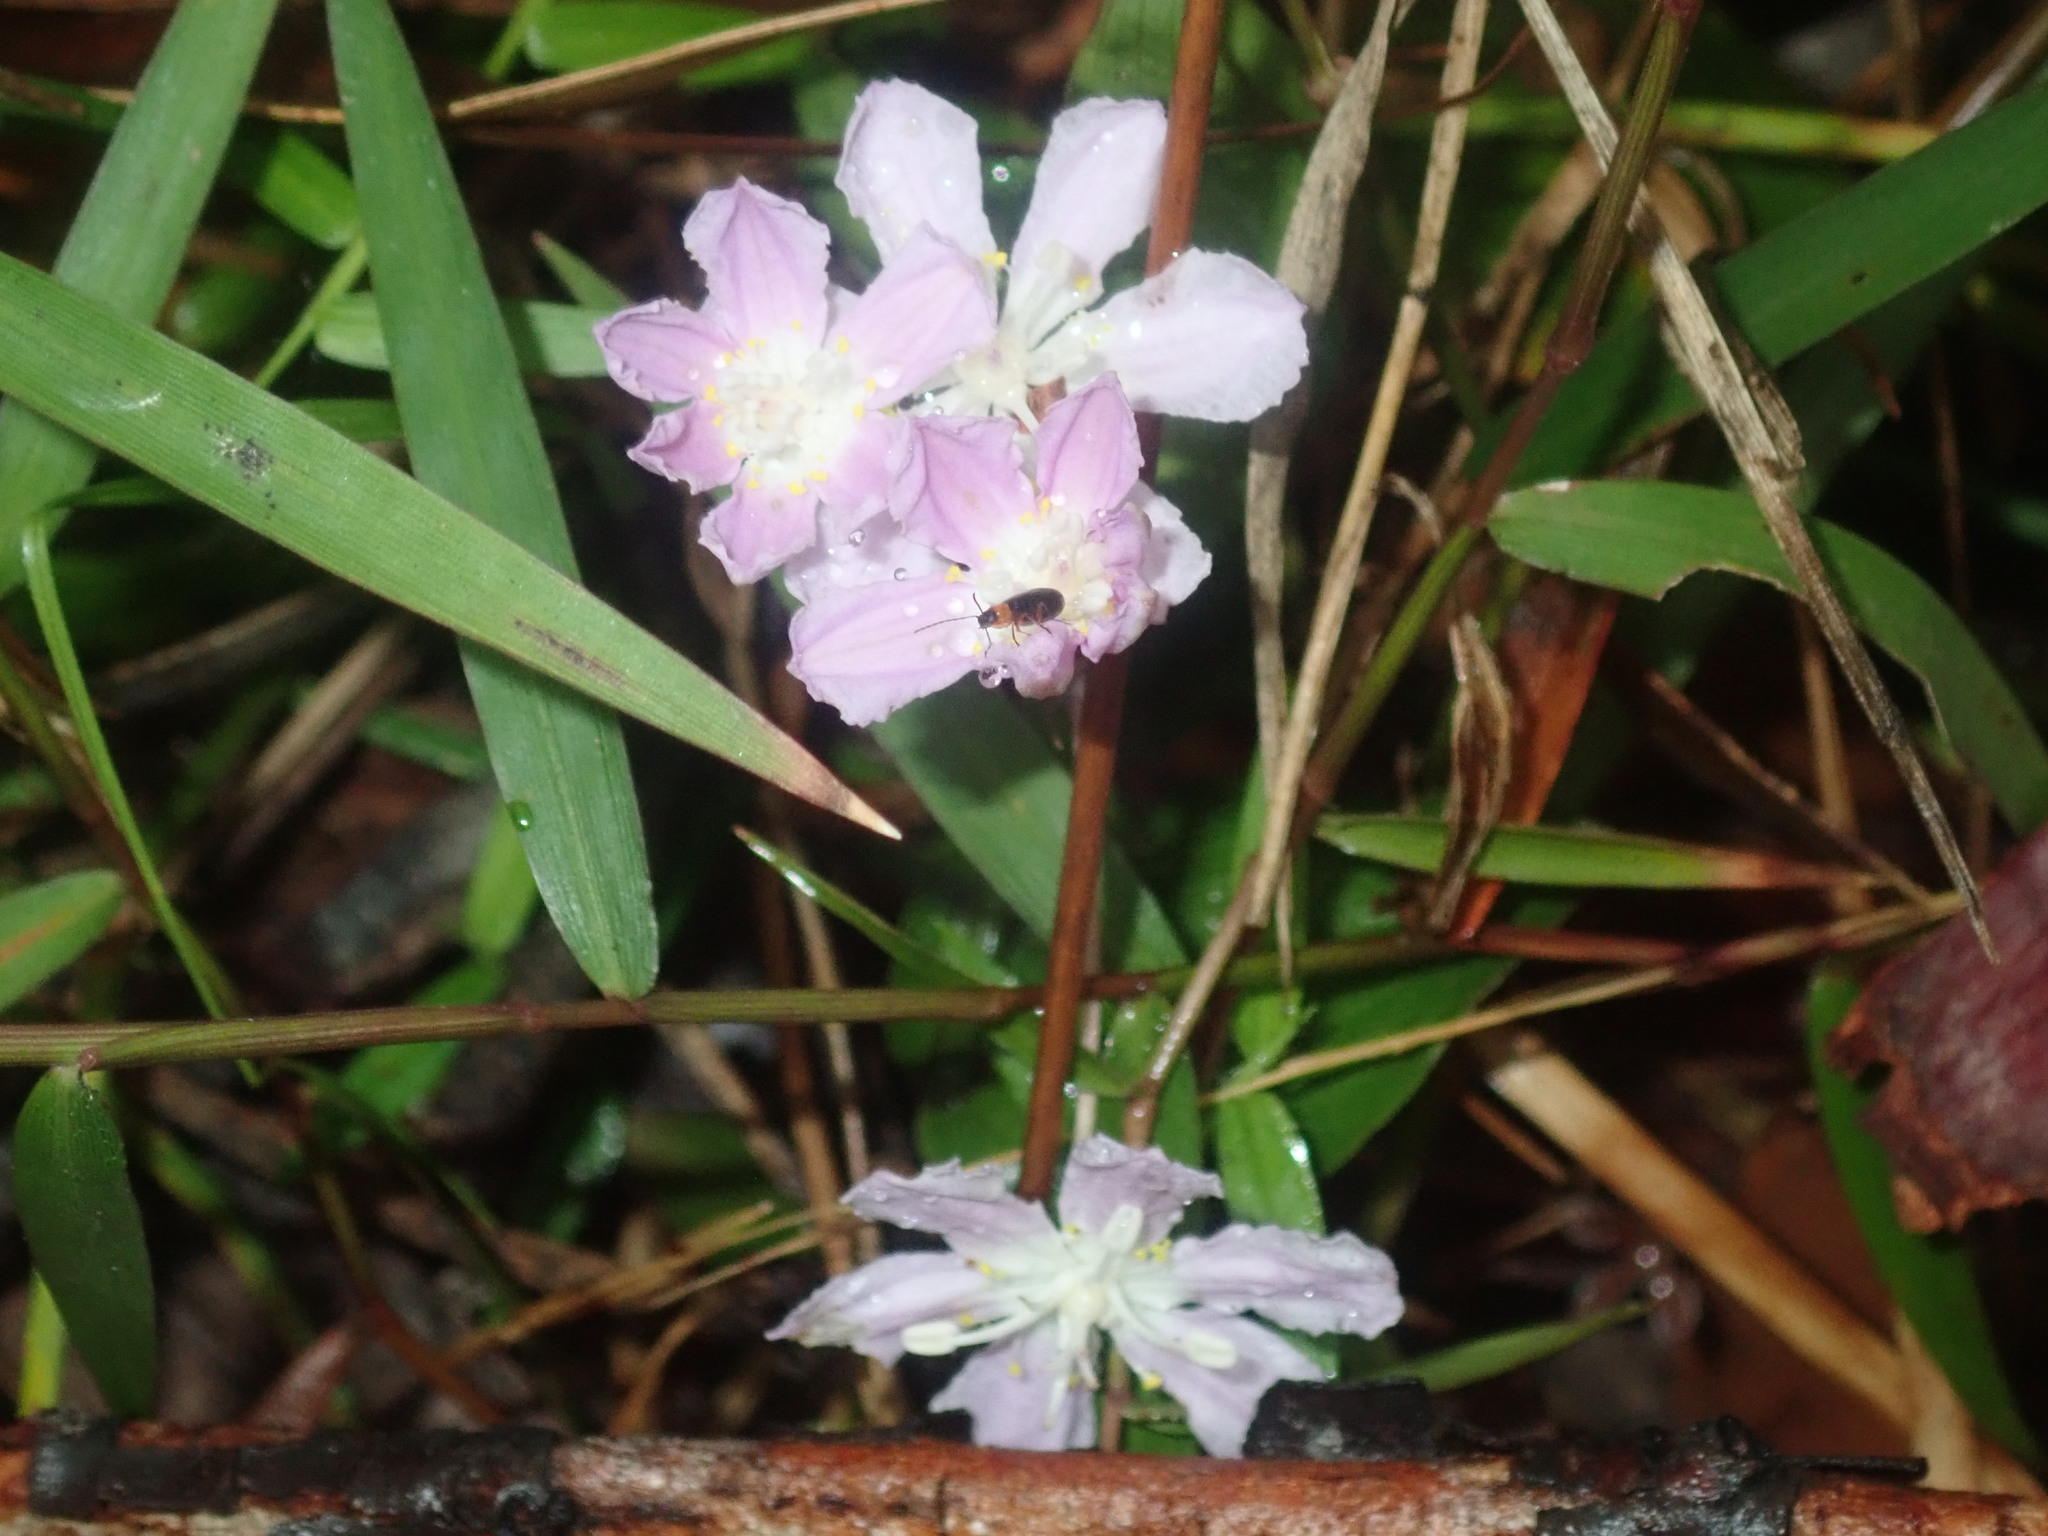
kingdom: Plantae
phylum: Tracheophyta
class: Liliopsida
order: Liliales
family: Colchicaceae
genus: Tripladenia
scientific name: Tripladenia cunninghamii
